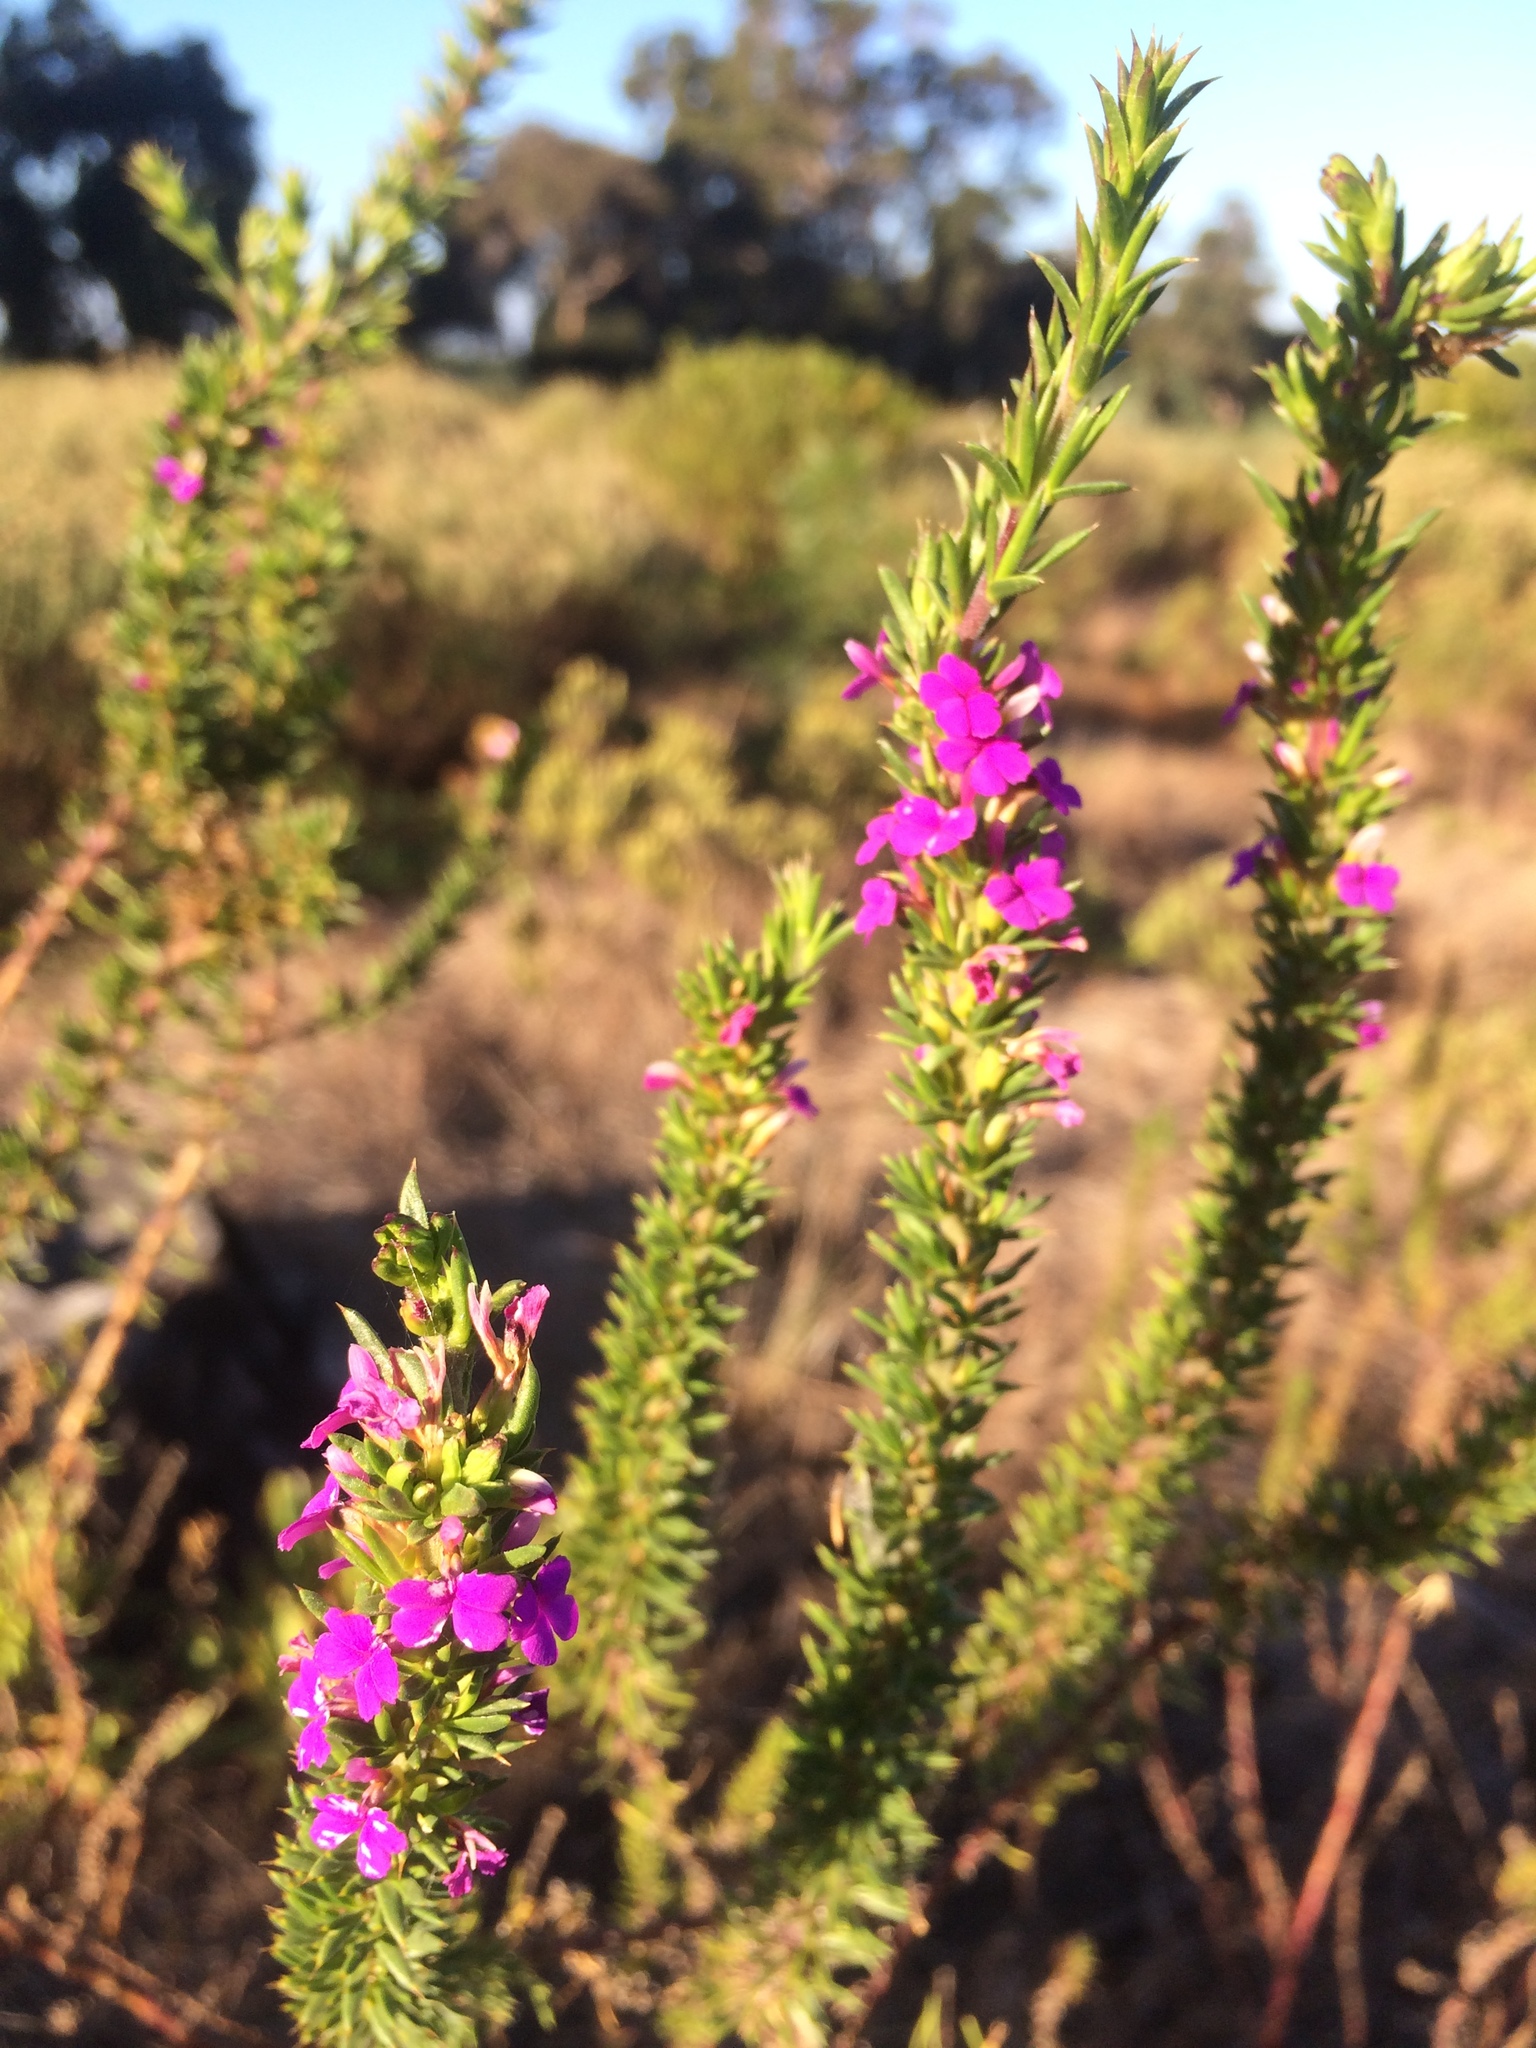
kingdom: Plantae
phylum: Tracheophyta
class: Magnoliopsida
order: Fabales
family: Polygalaceae
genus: Muraltia
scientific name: Muraltia heisteria
